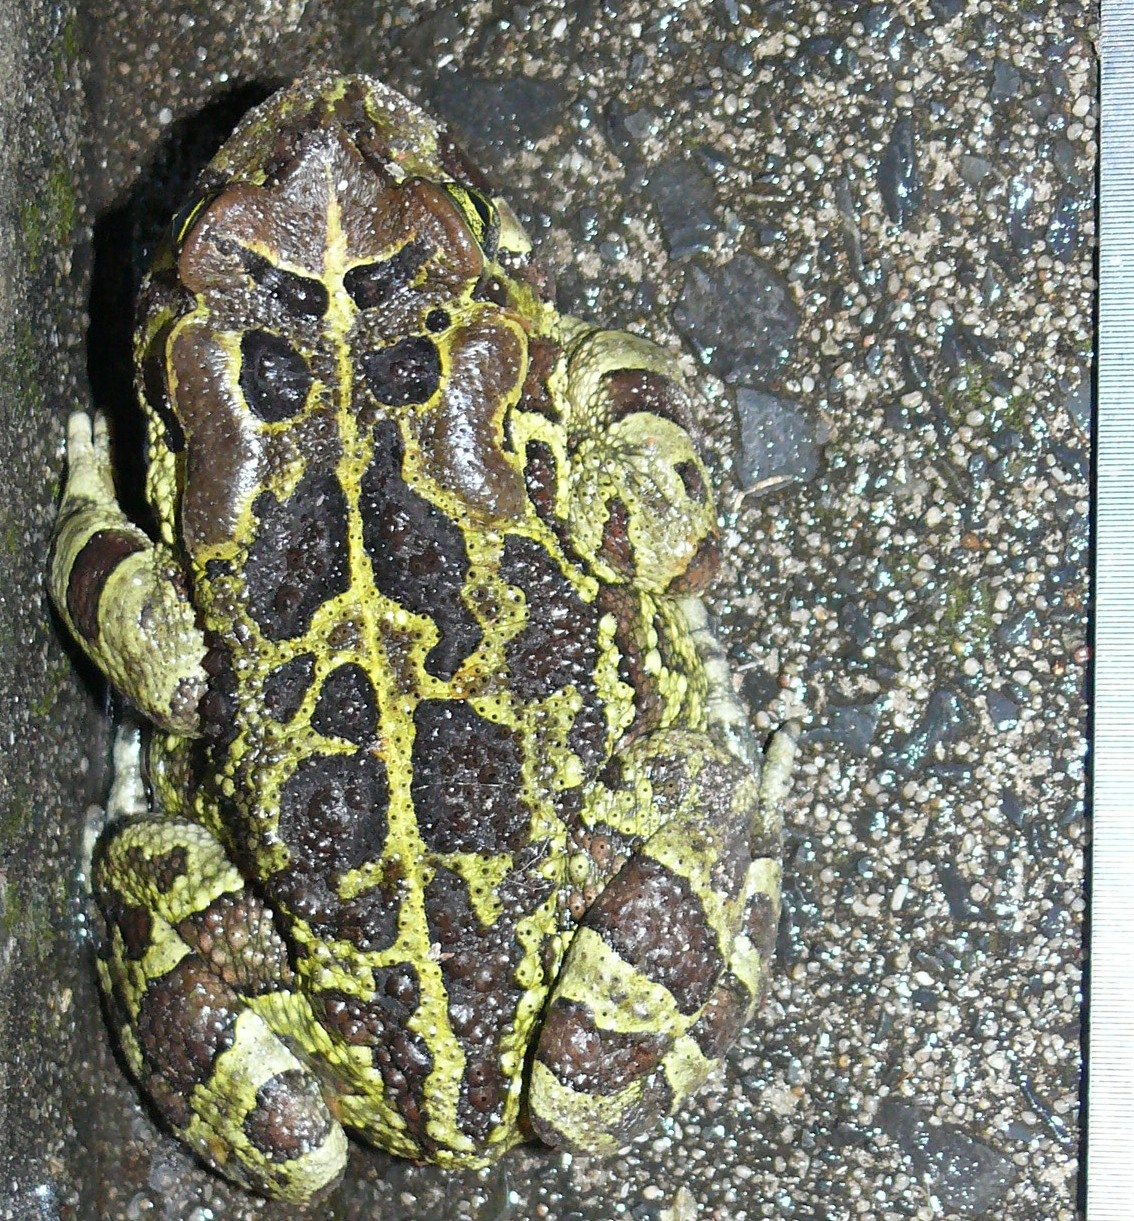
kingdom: Animalia
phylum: Chordata
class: Amphibia
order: Anura
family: Bufonidae
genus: Sclerophrys
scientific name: Sclerophrys pantherina
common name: Panther toad
